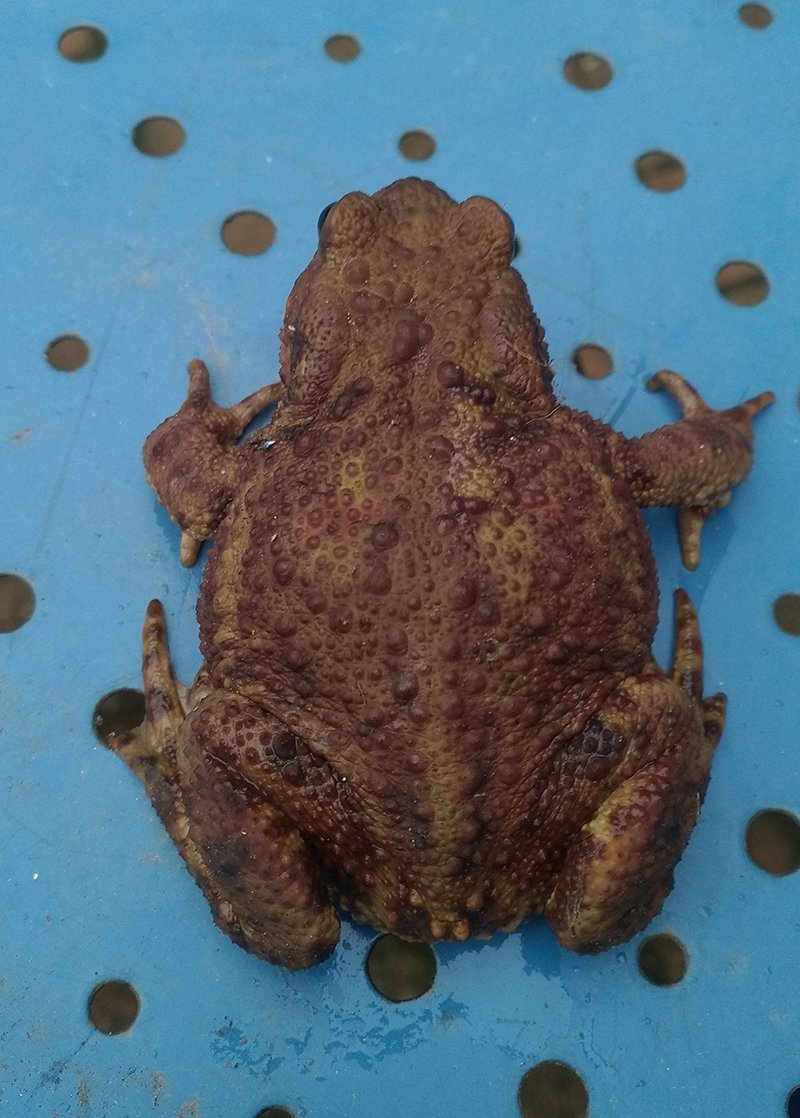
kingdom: Animalia
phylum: Chordata
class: Amphibia
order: Anura
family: Bufonidae
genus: Bufo
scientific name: Bufo bufo
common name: Common toad
